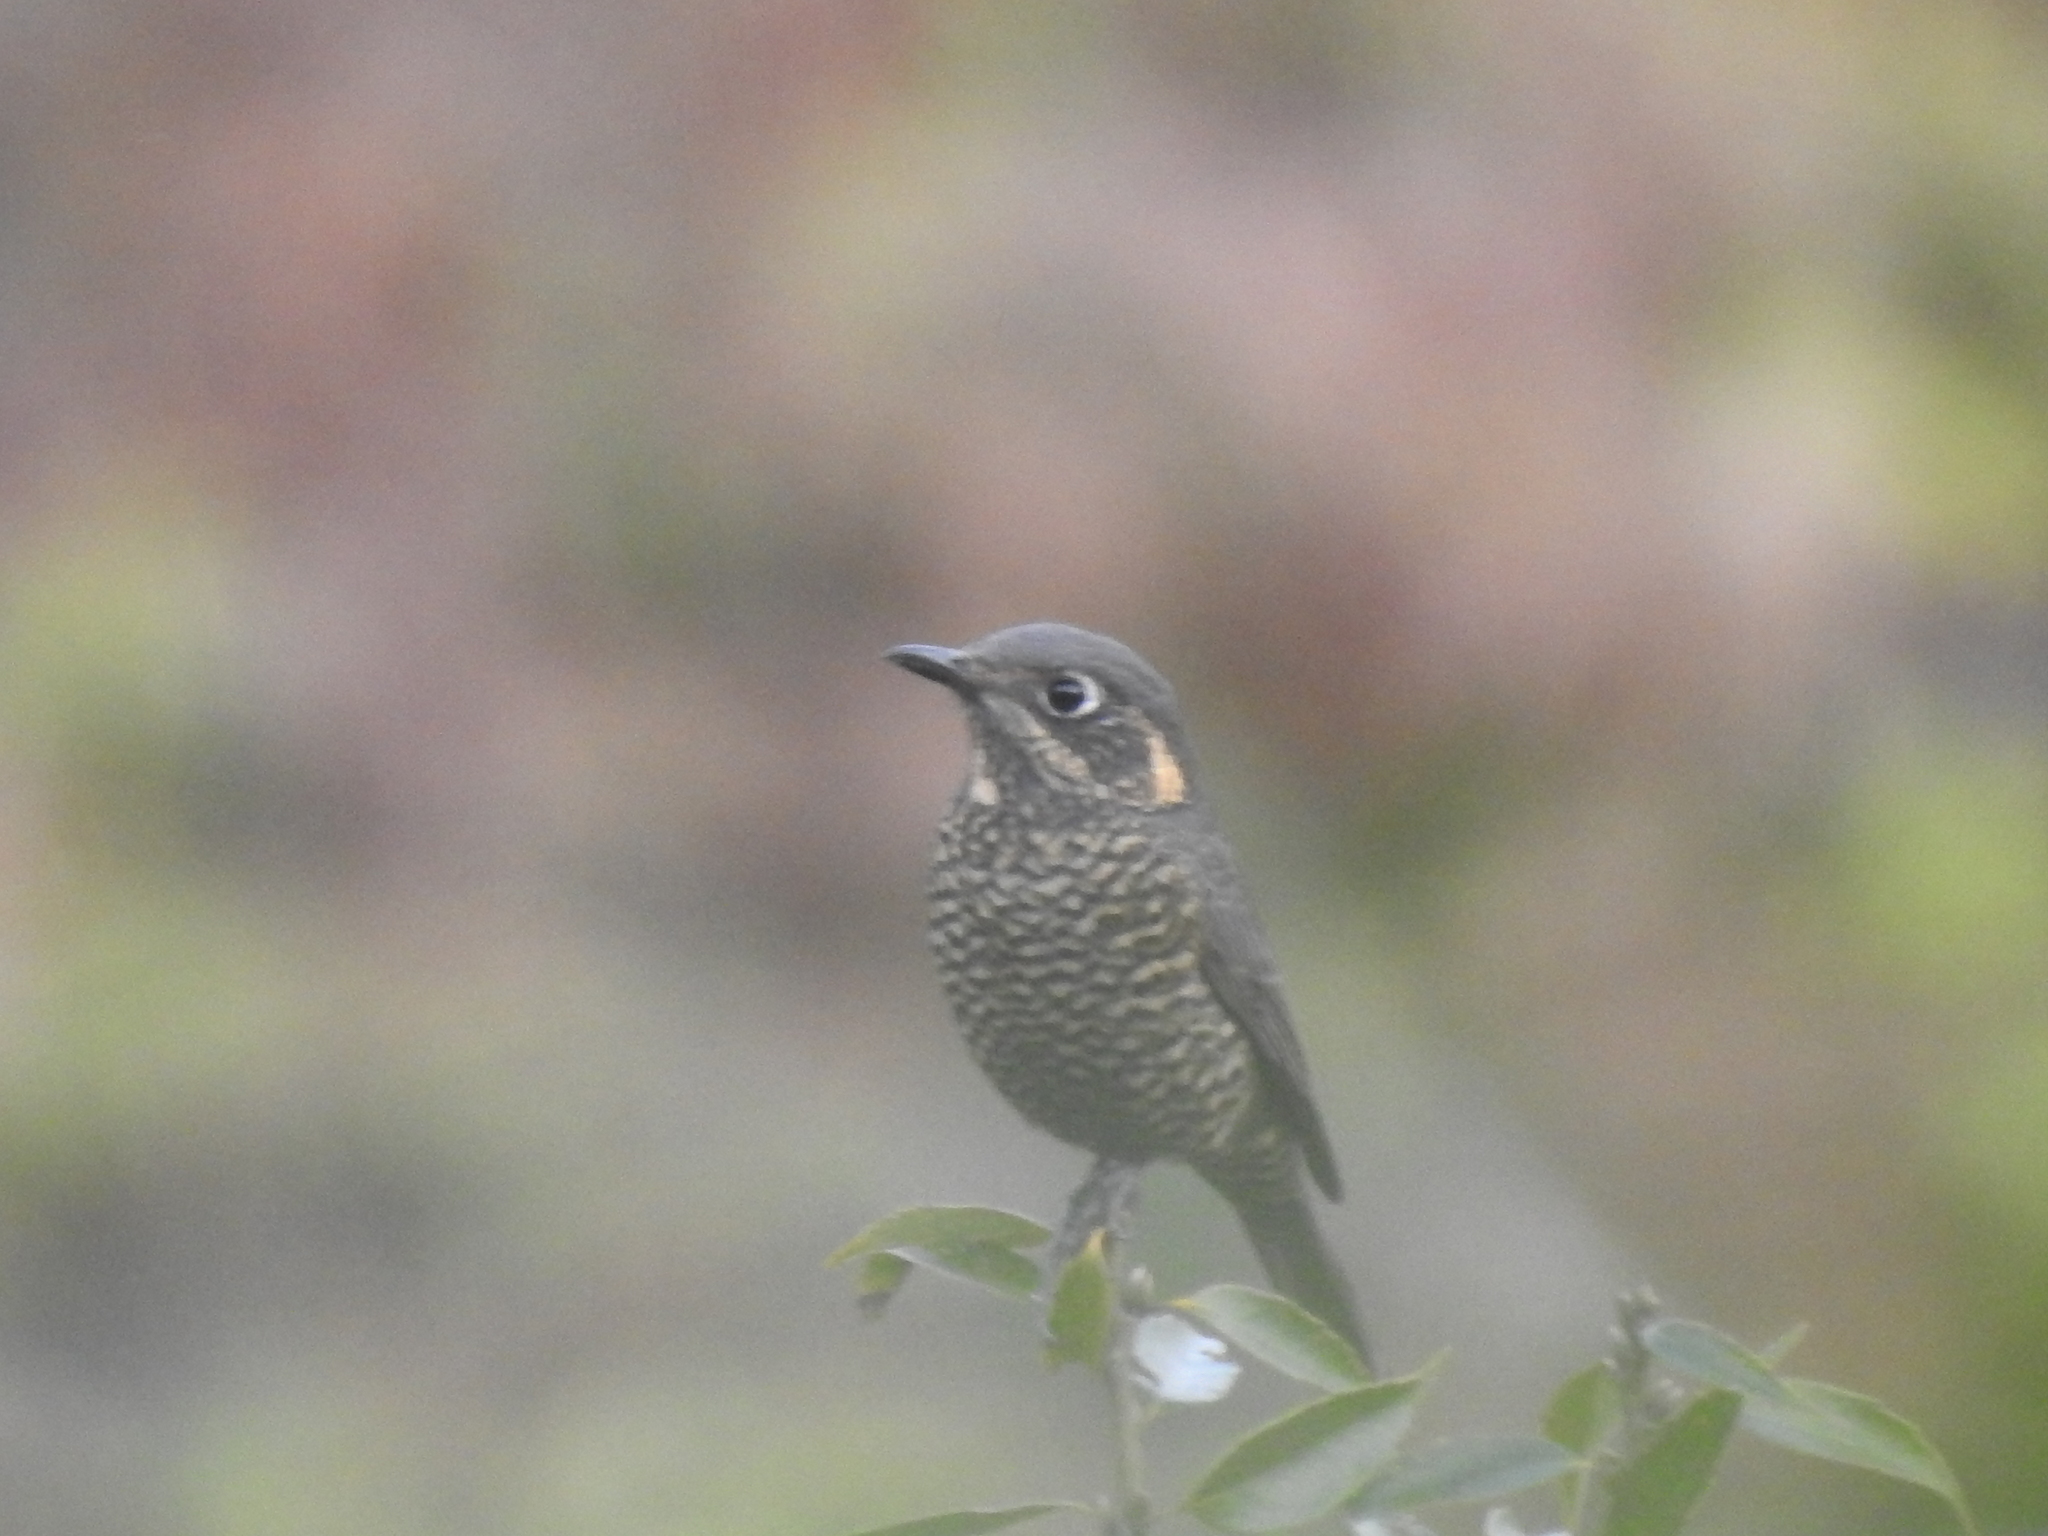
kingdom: Animalia
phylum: Chordata
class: Aves
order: Passeriformes
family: Muscicapidae
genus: Monticola
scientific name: Monticola rufiventris
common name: Chestnut-bellied rock thrush
